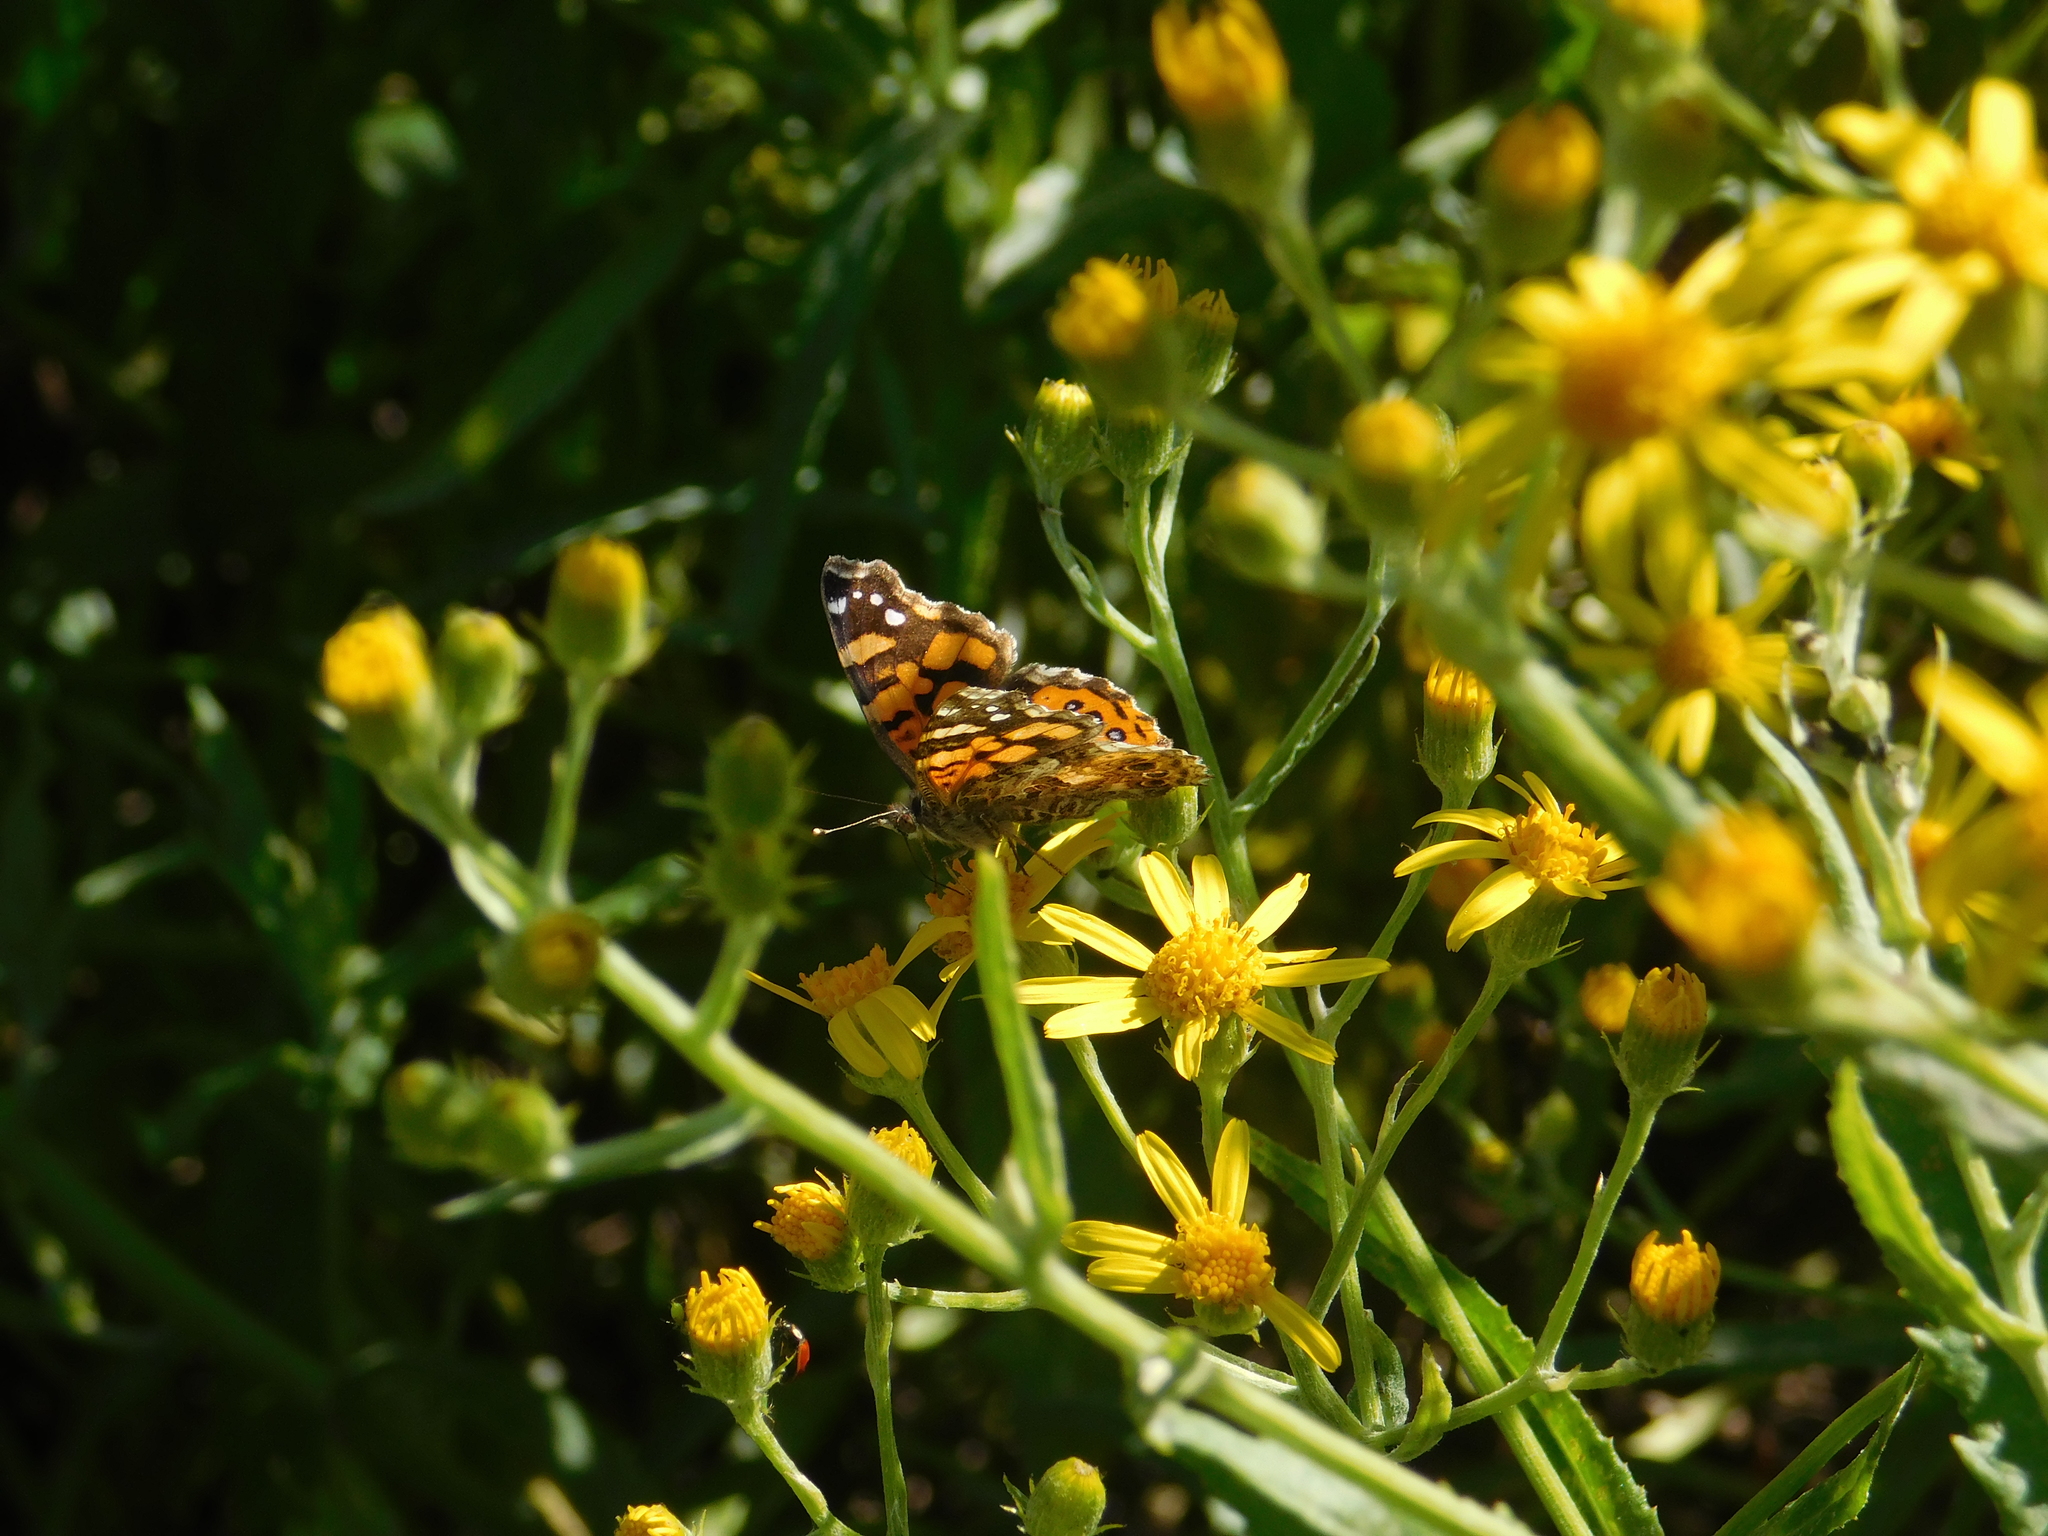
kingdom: Animalia
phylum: Arthropoda
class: Insecta
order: Lepidoptera
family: Nymphalidae
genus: Vanessa
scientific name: Vanessa carye
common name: Subtropical lady
